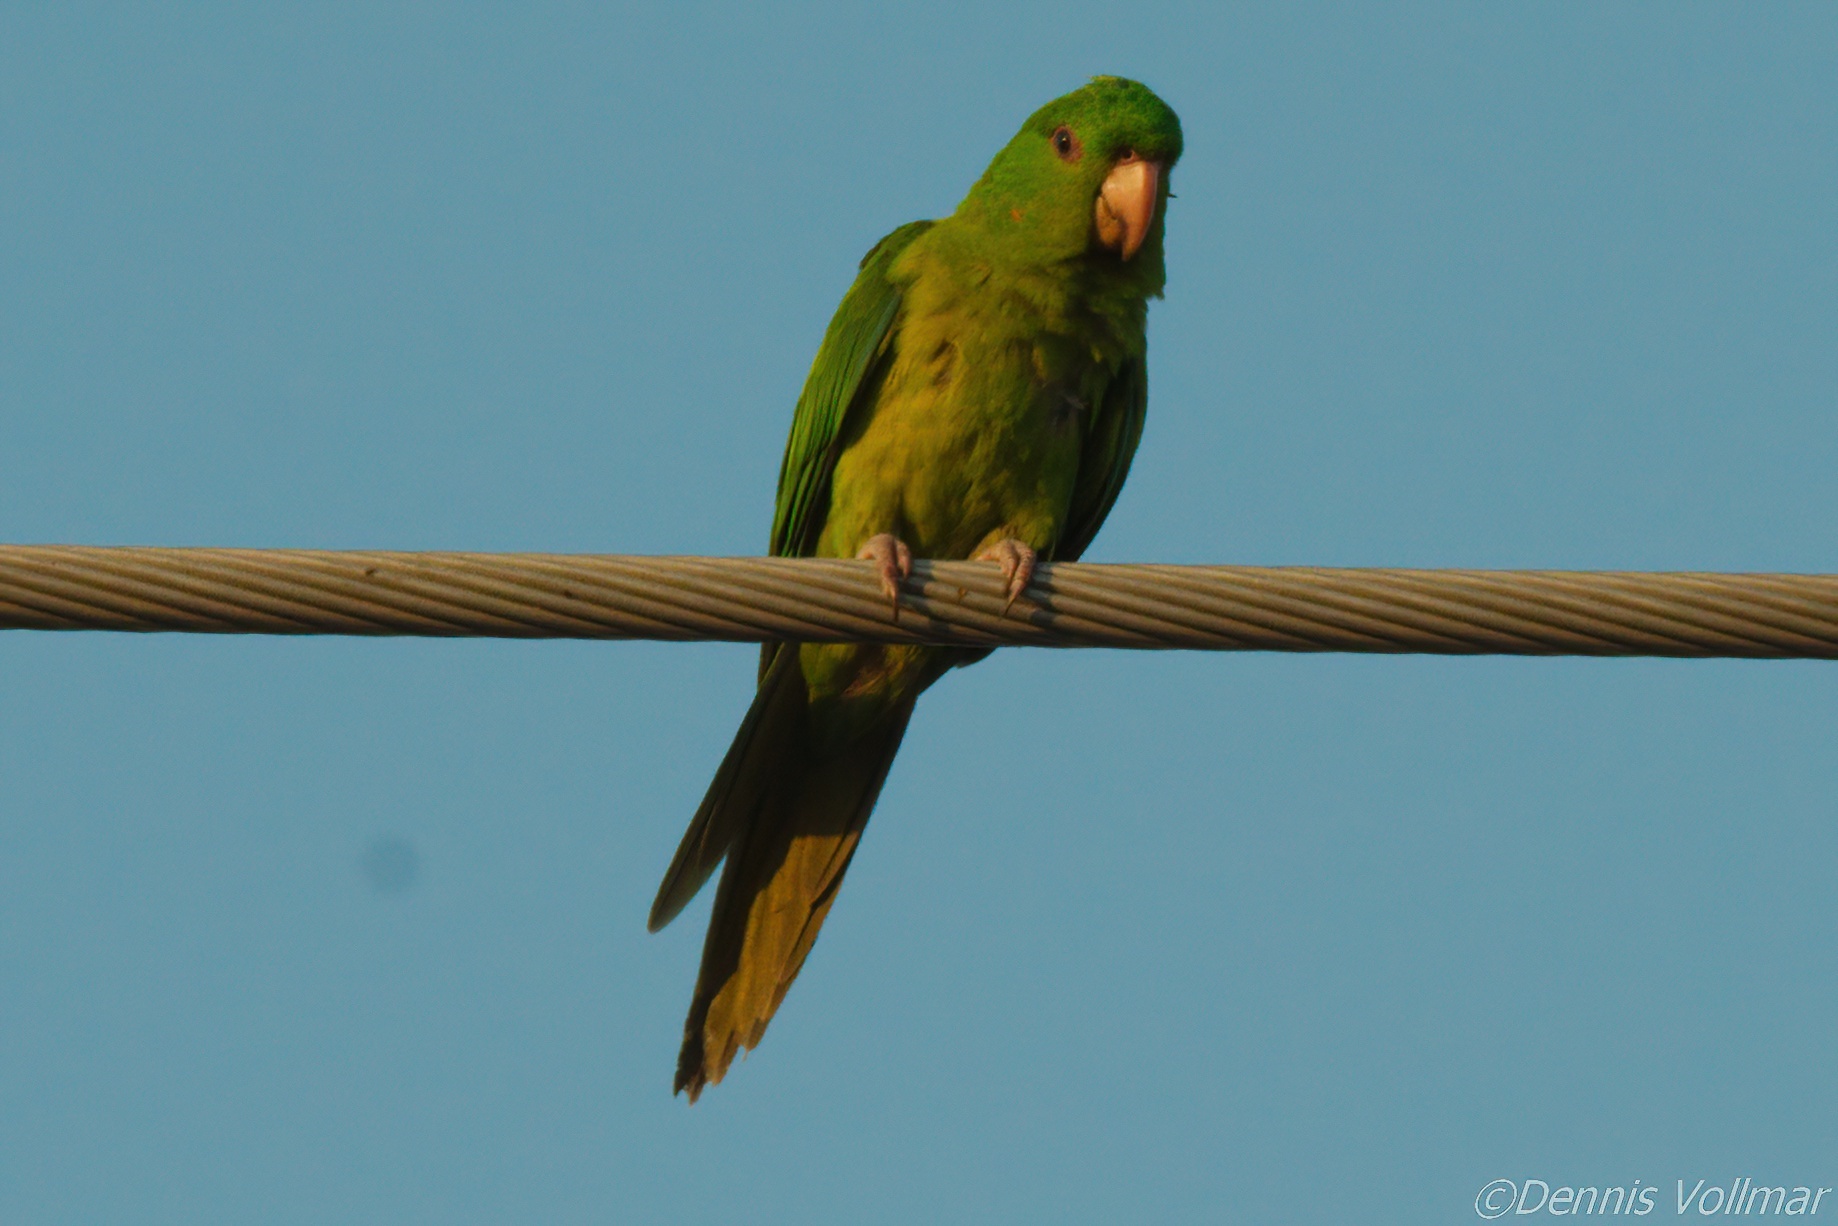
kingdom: Animalia
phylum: Chordata
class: Aves
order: Psittaciformes
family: Psittacidae
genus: Aratinga
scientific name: Aratinga holochlora
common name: Green parakeet
